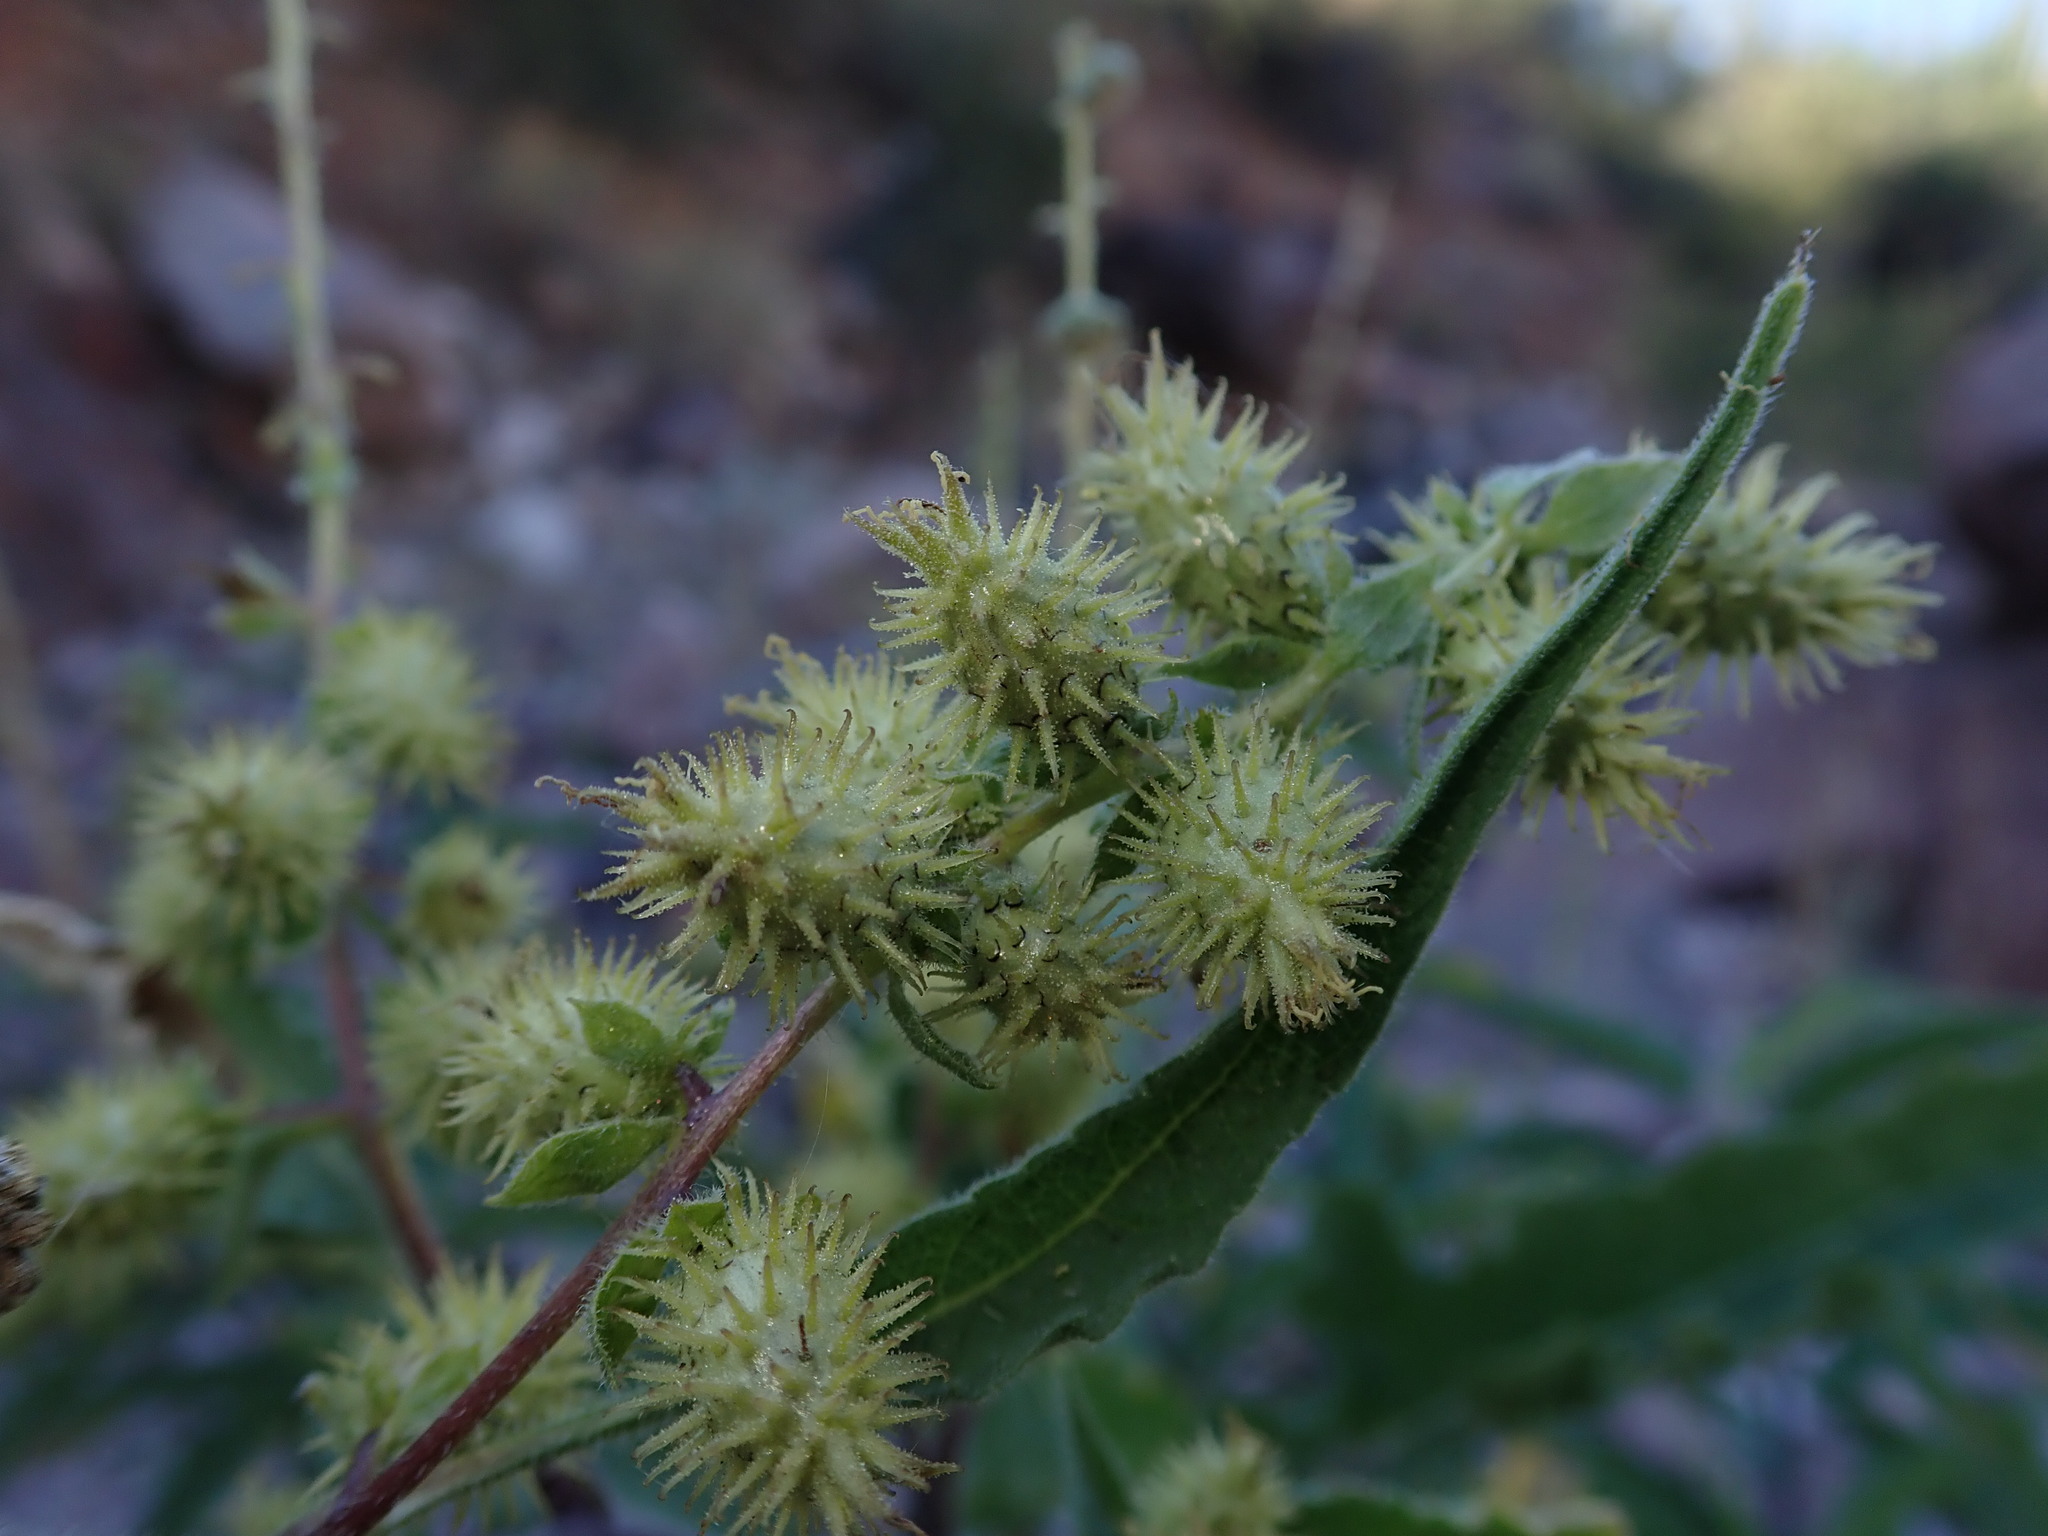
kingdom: Plantae
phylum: Tracheophyta
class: Magnoliopsida
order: Asterales
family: Asteraceae
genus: Ambrosia
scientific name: Ambrosia ambrosioides
